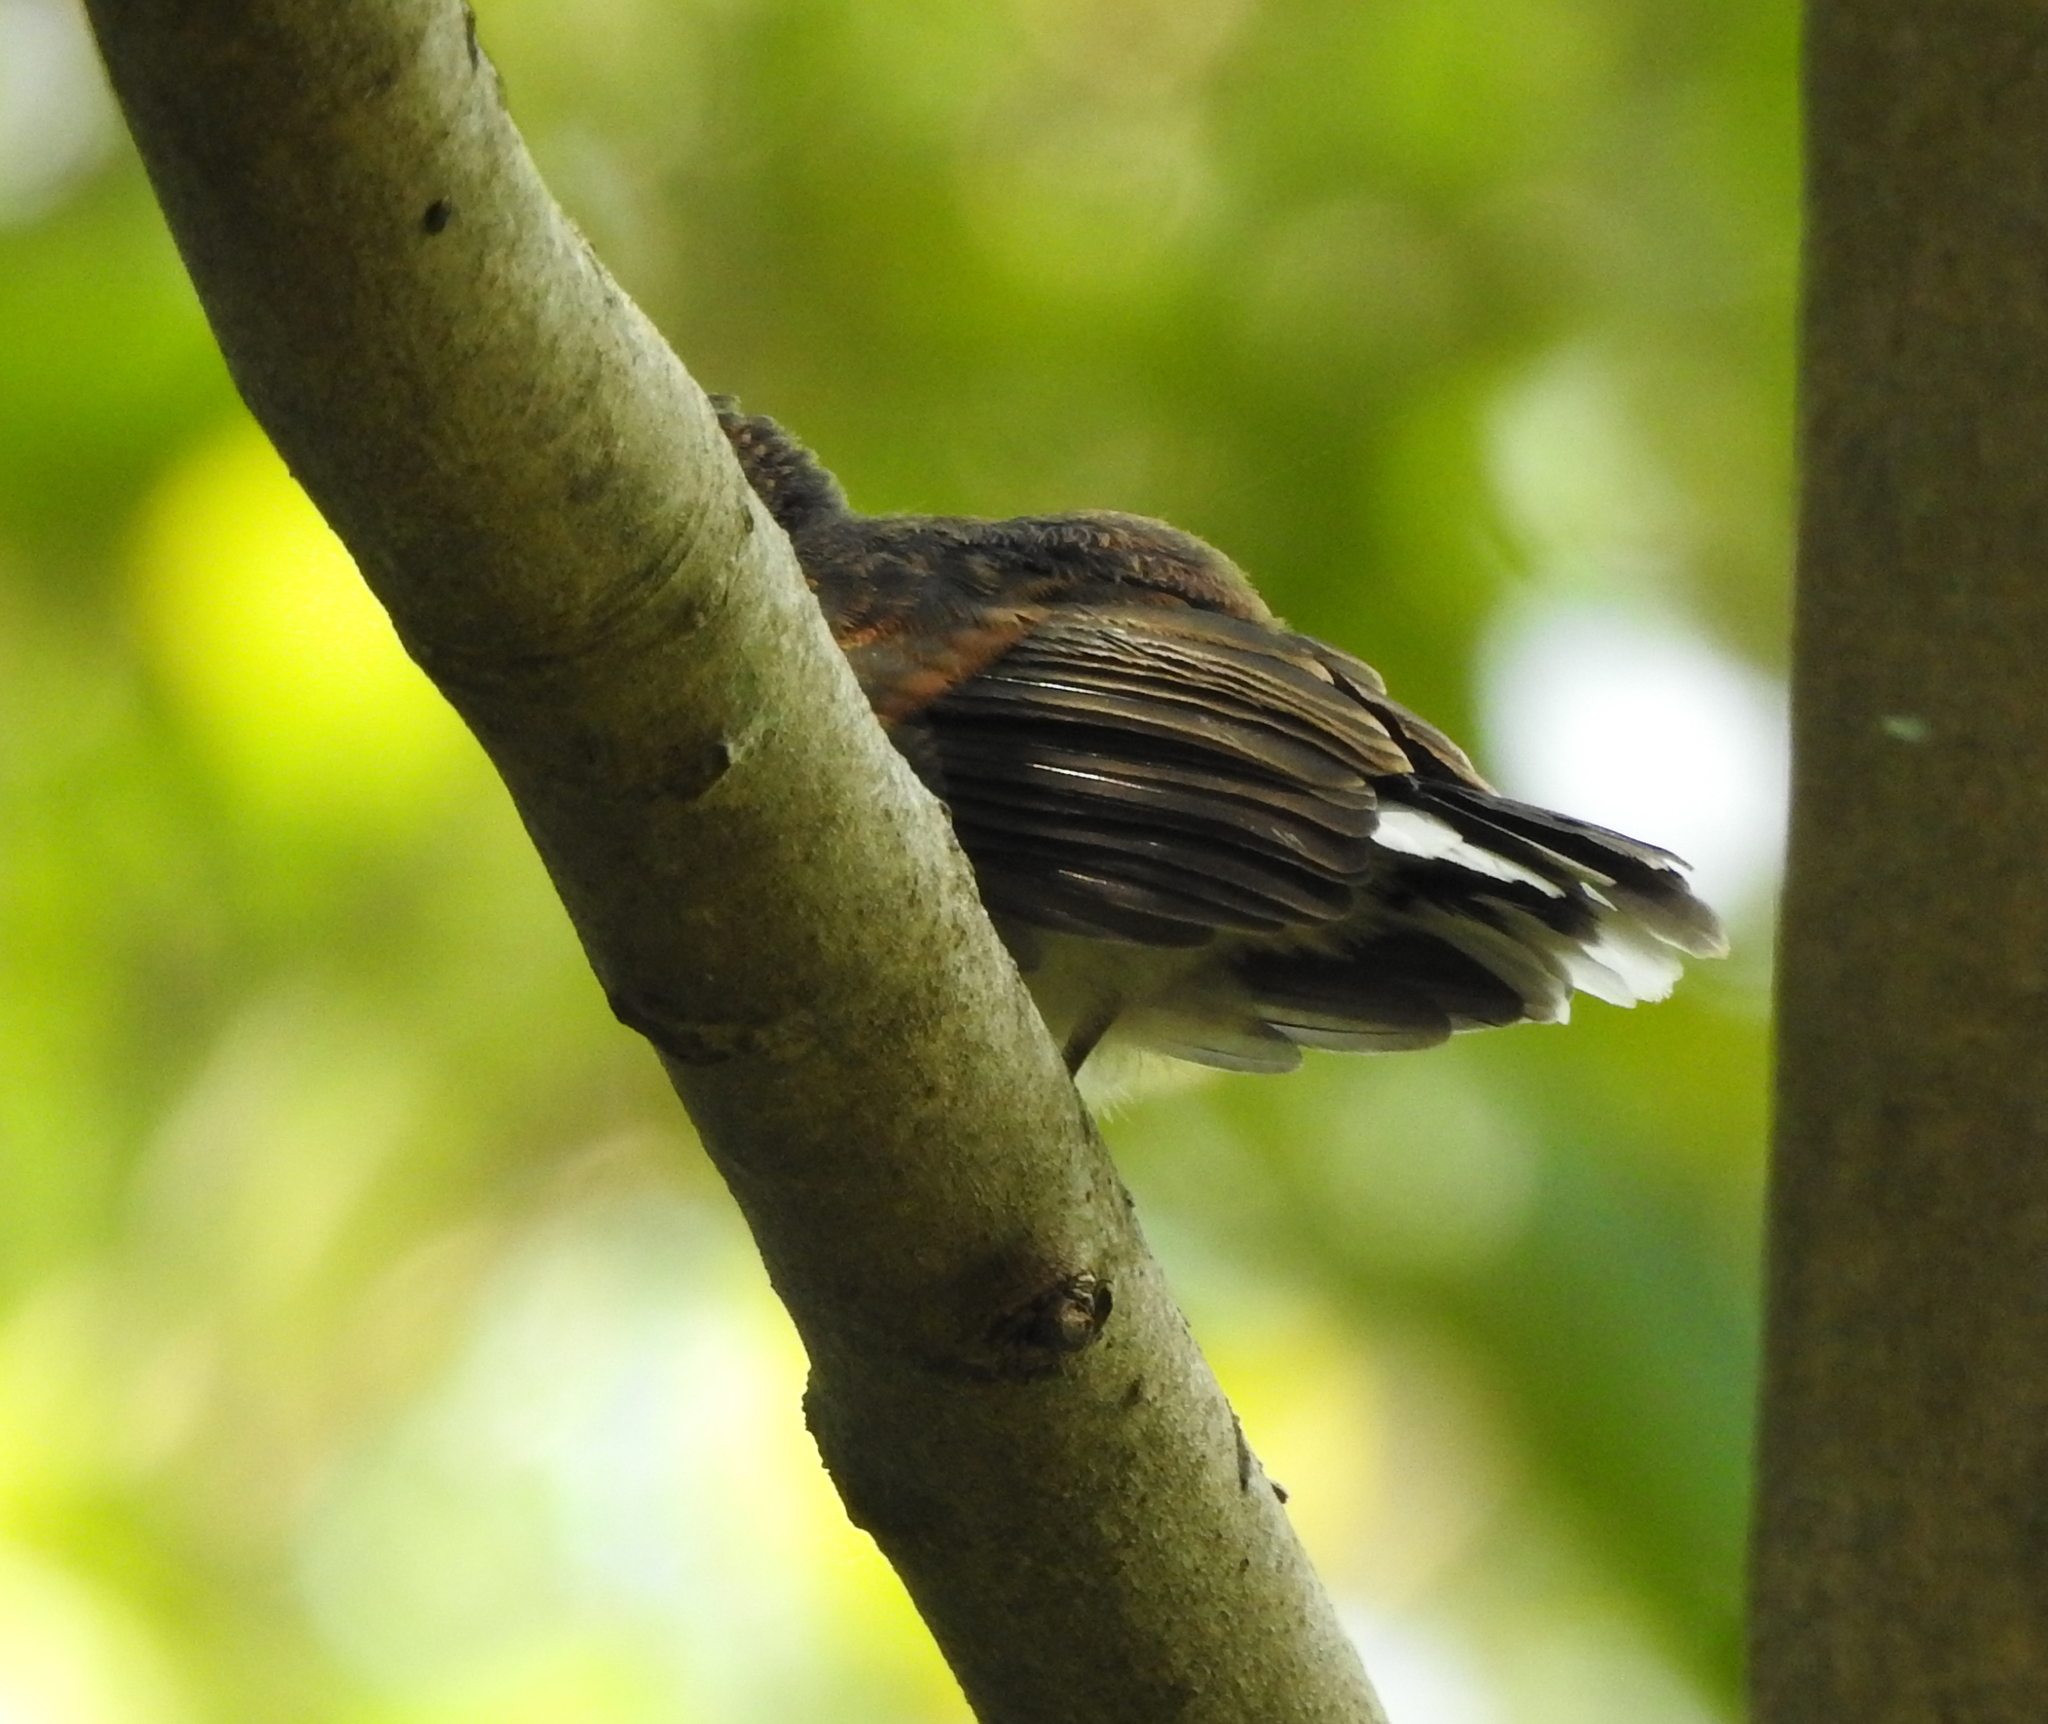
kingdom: Animalia
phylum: Chordata
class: Aves
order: Passeriformes
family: Rhipiduridae
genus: Rhipidura
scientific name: Rhipidura javanica
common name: Pied fantail
